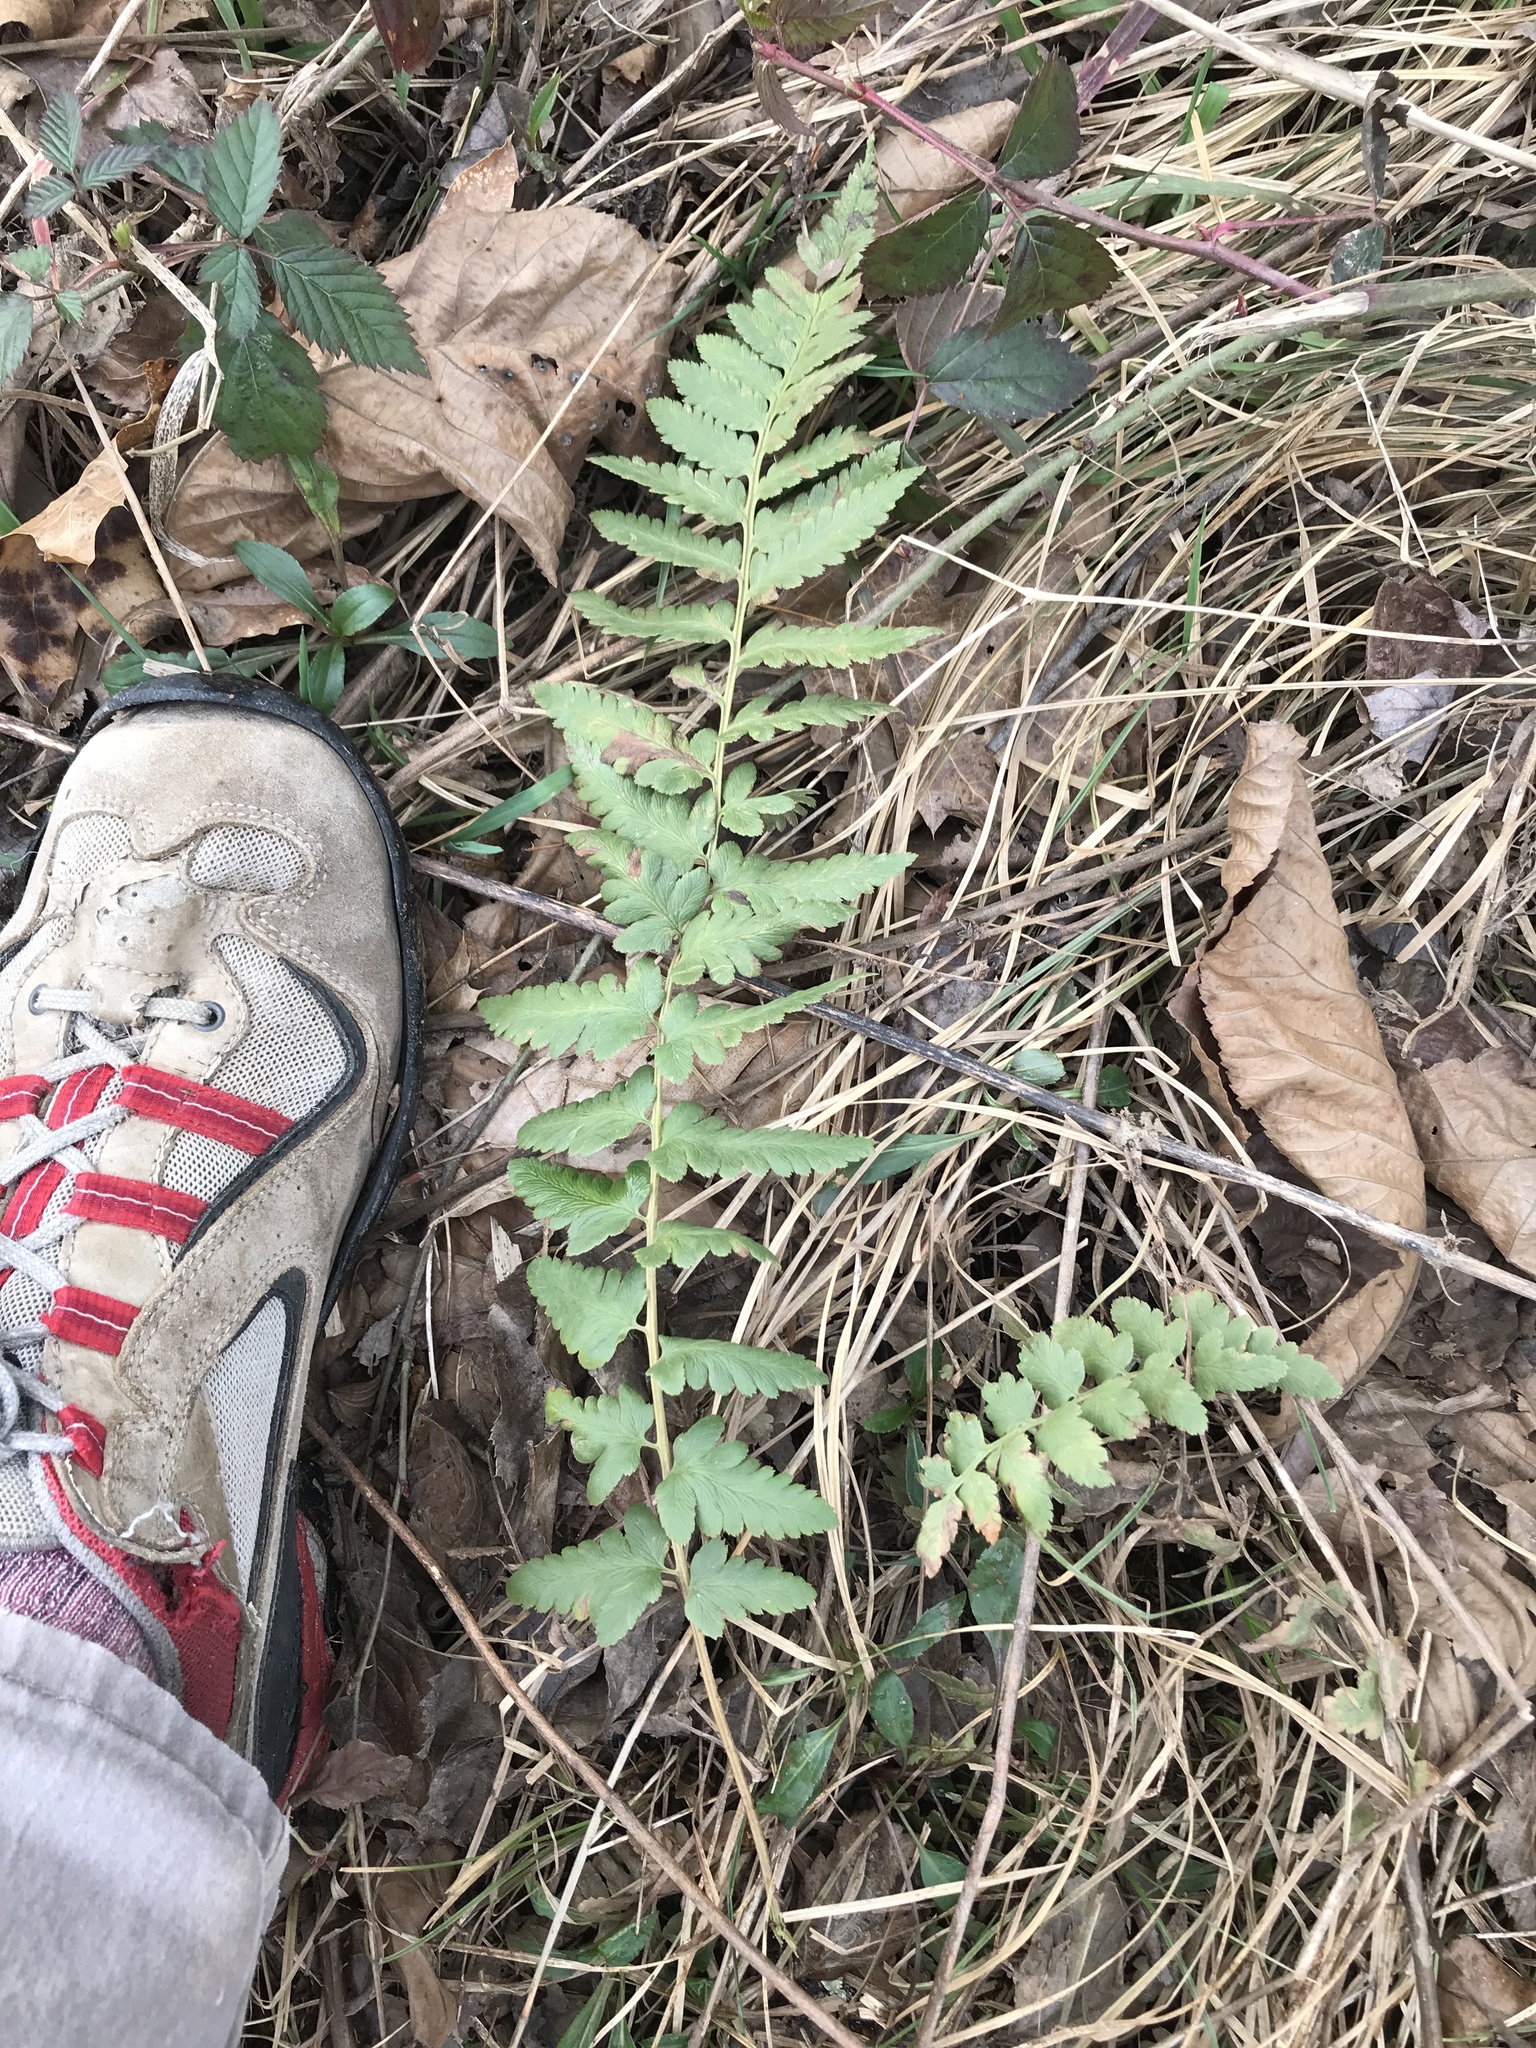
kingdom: Plantae
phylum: Tracheophyta
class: Polypodiopsida
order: Polypodiales
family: Dryopteridaceae
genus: Dryopteris
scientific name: Dryopteris cristata
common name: Crested wood fern
